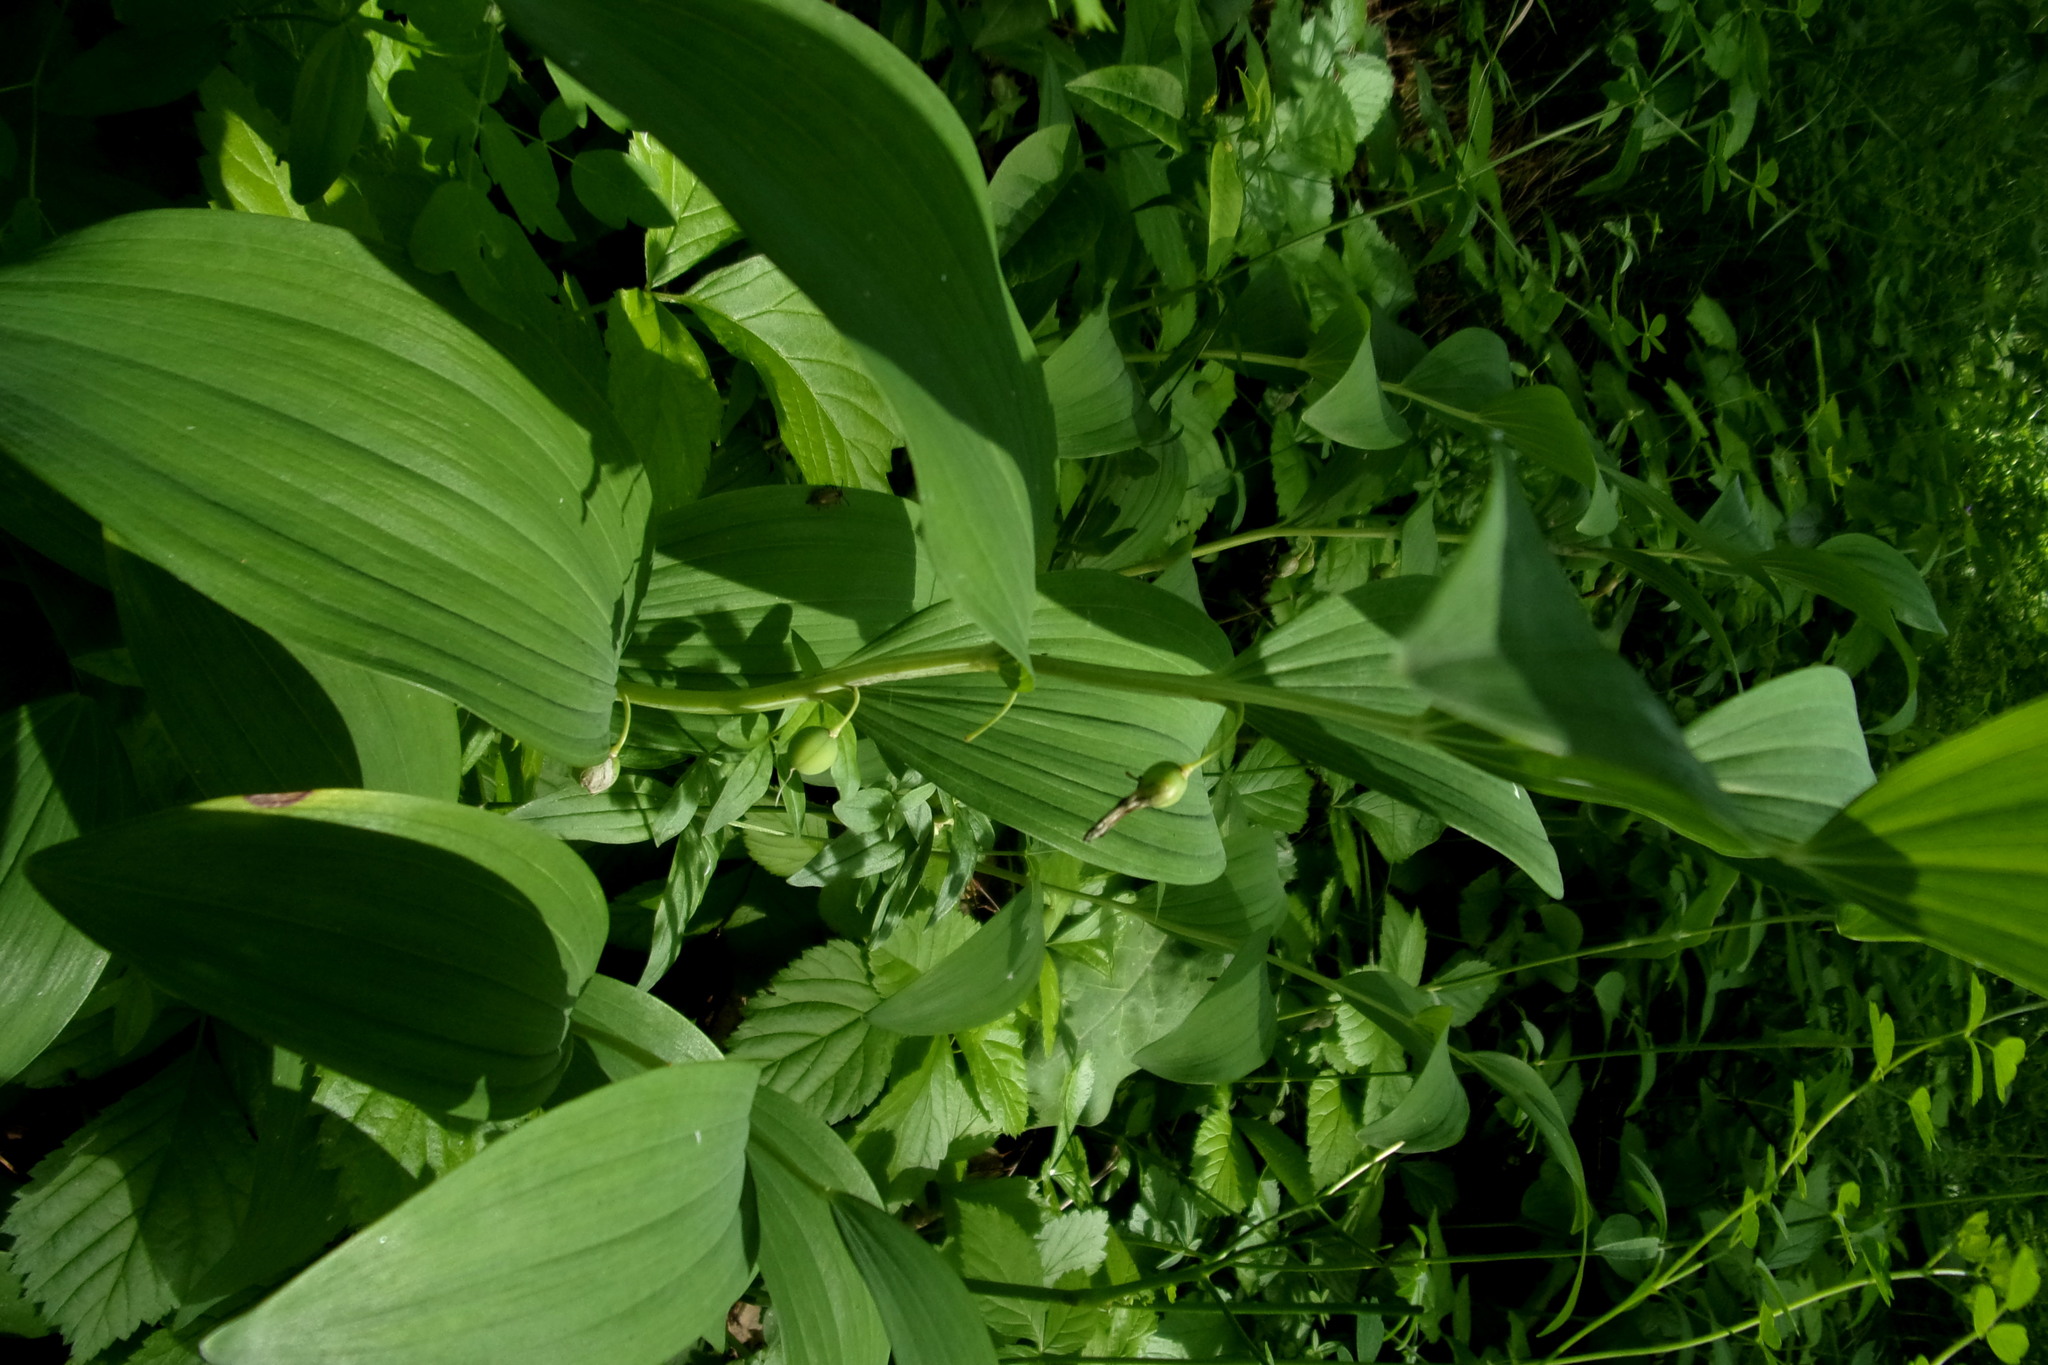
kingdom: Plantae
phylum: Tracheophyta
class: Liliopsida
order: Asparagales
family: Asparagaceae
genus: Polygonatum
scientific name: Polygonatum odoratum
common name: Angular solomon's-seal
